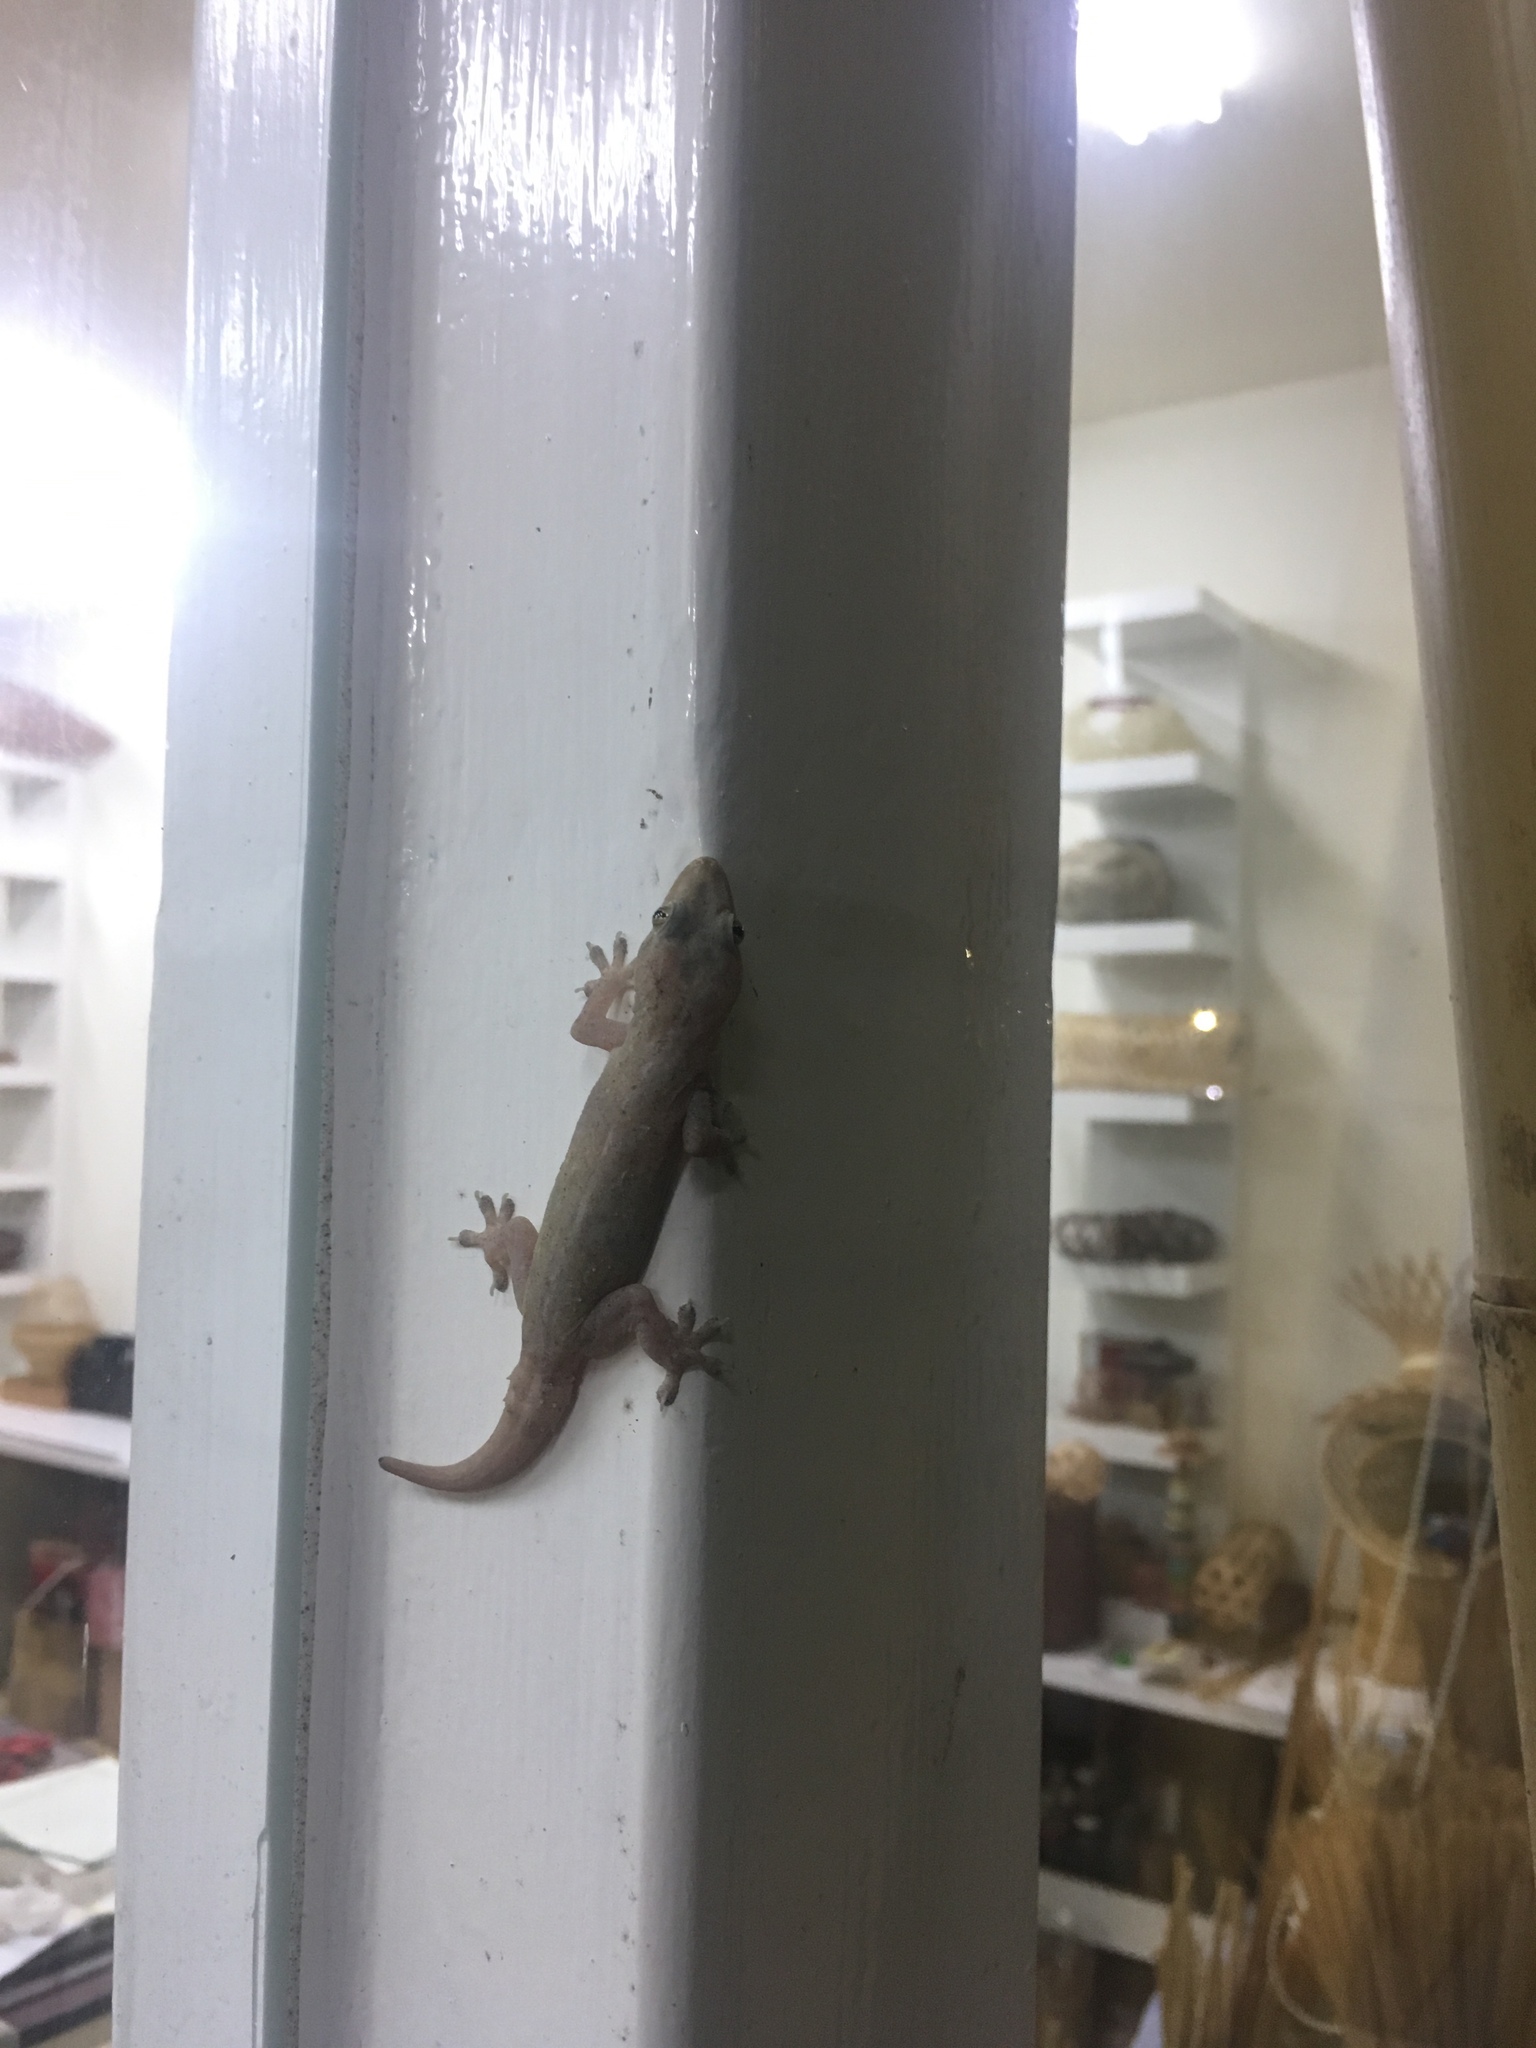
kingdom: Animalia
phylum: Chordata
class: Squamata
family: Gekkonidae
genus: Hemidactylus
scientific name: Hemidactylus frenatus
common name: Common house gecko
